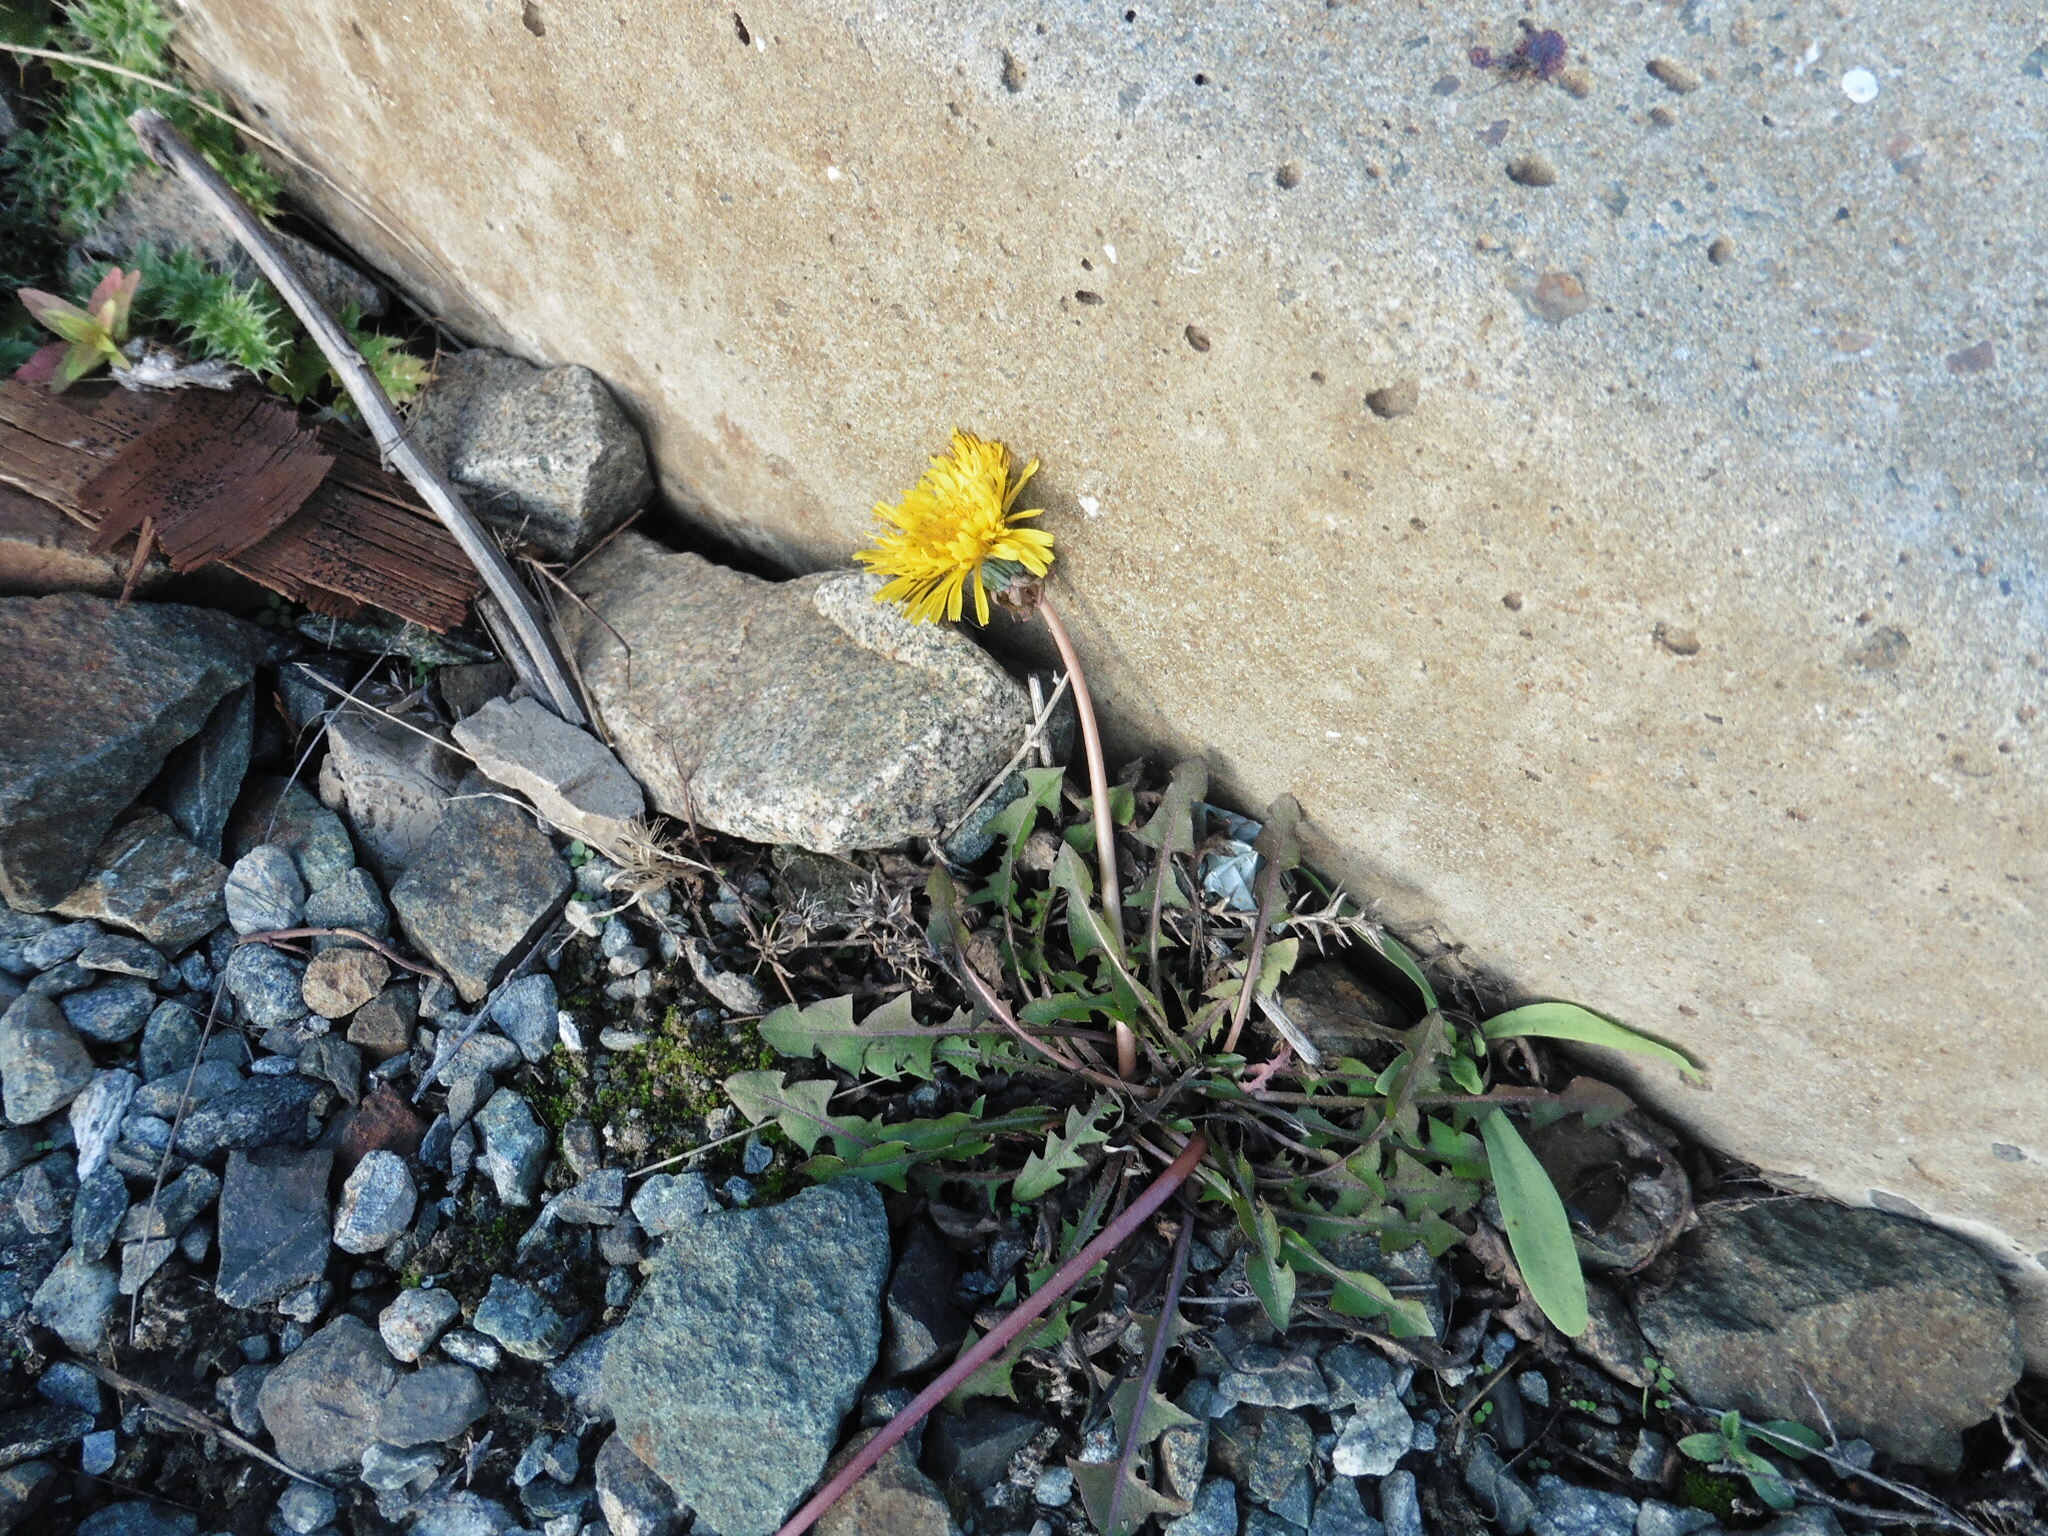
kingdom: Plantae
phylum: Tracheophyta
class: Magnoliopsida
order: Asterales
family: Asteraceae
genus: Taraxacum
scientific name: Taraxacum officinale
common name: Common dandelion
